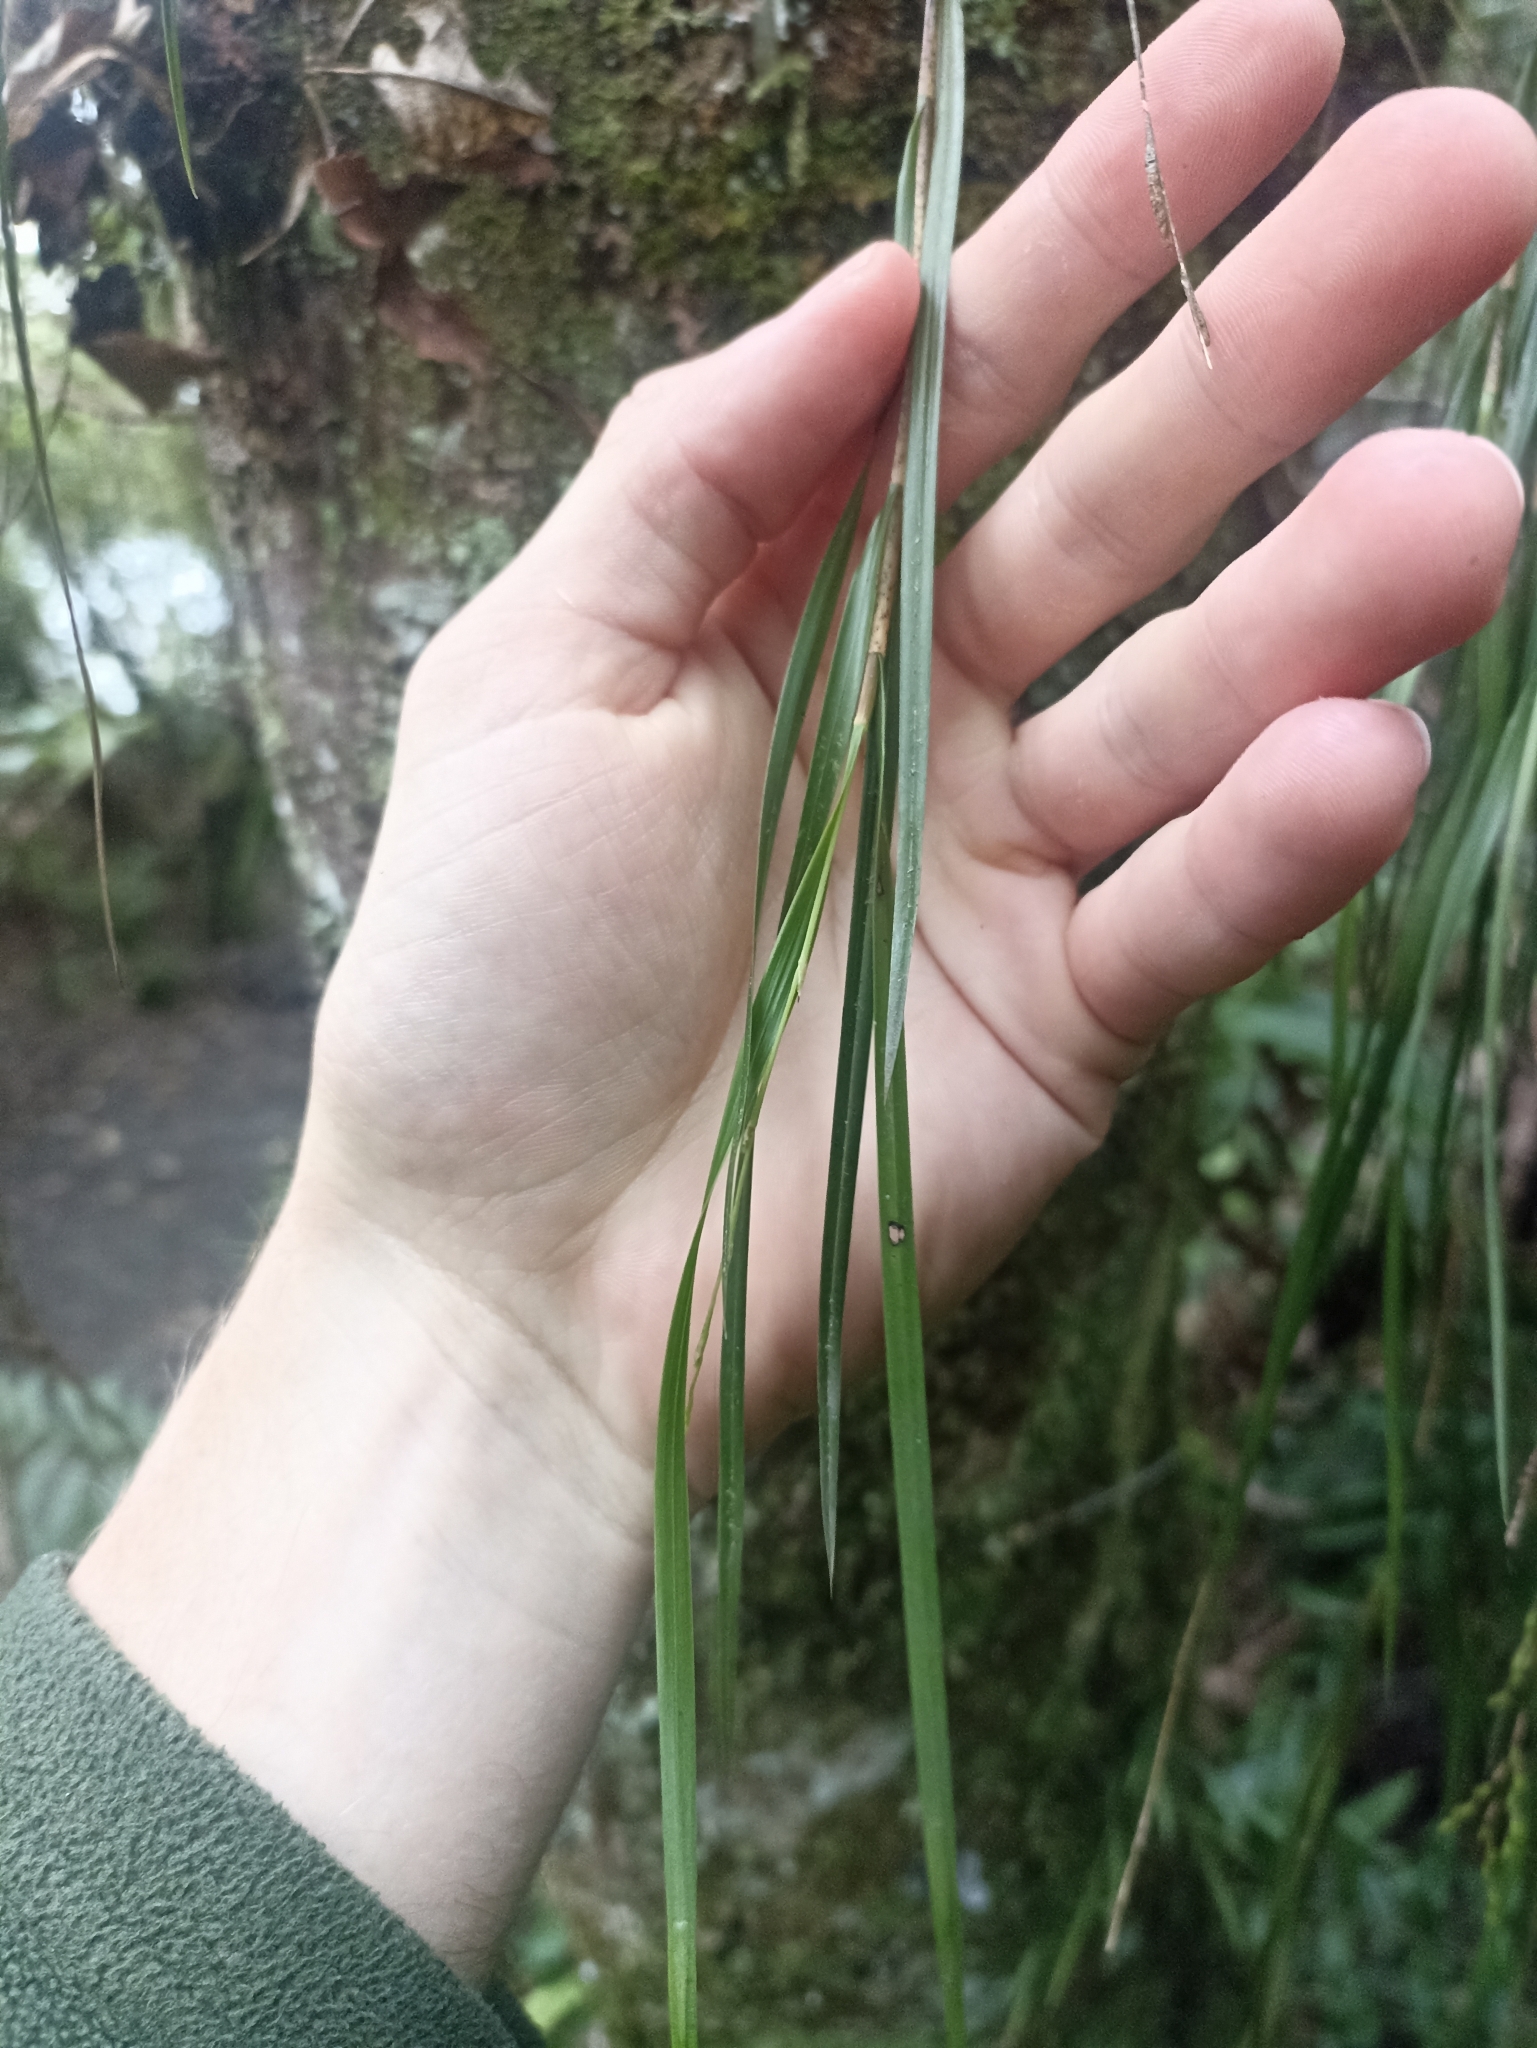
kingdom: Plantae
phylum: Tracheophyta
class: Liliopsida
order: Asparagales
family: Orchidaceae
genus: Earina
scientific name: Earina mucronata
